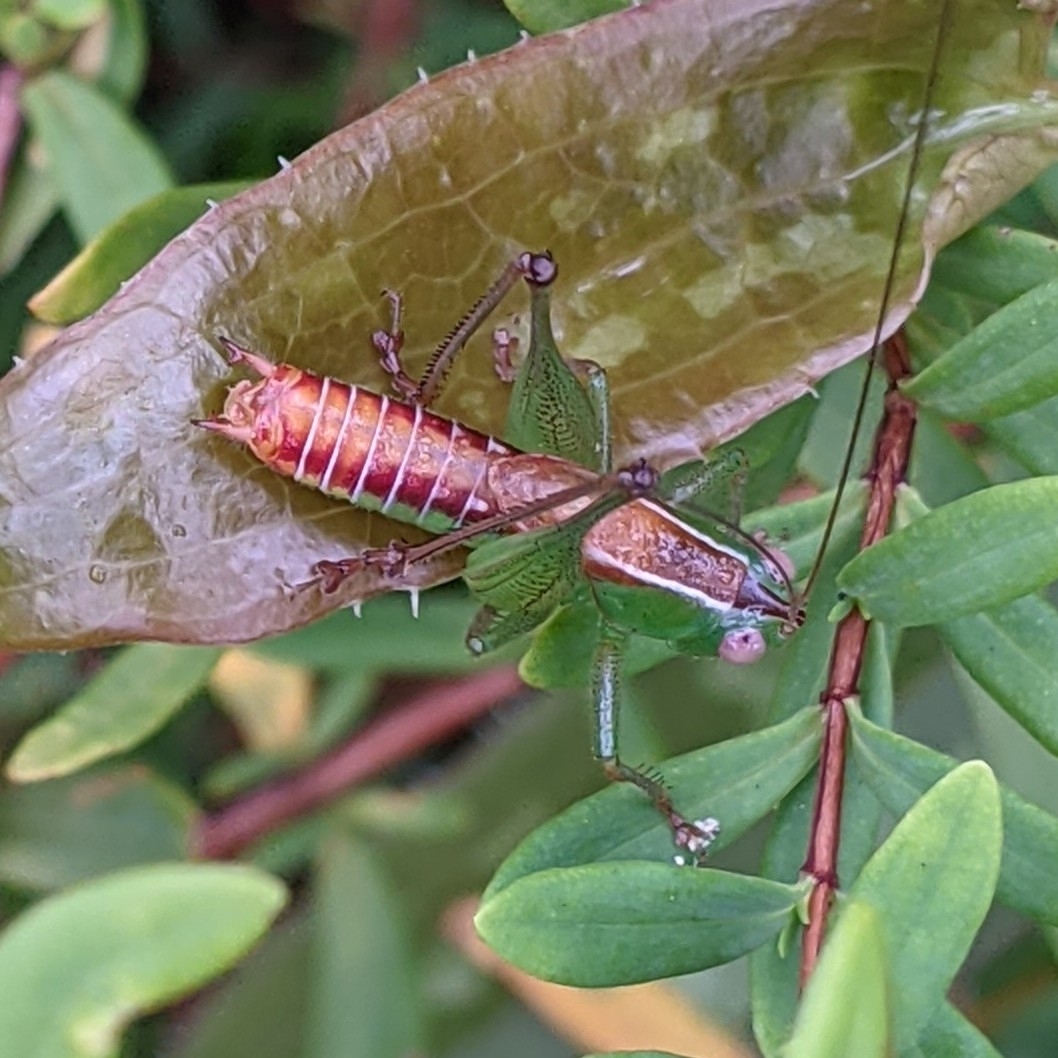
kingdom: Animalia
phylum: Arthropoda
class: Insecta
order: Orthoptera
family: Tettigoniidae
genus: Odontoxiphidium
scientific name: Odontoxiphidium apterum
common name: Wingless meadow katydid
